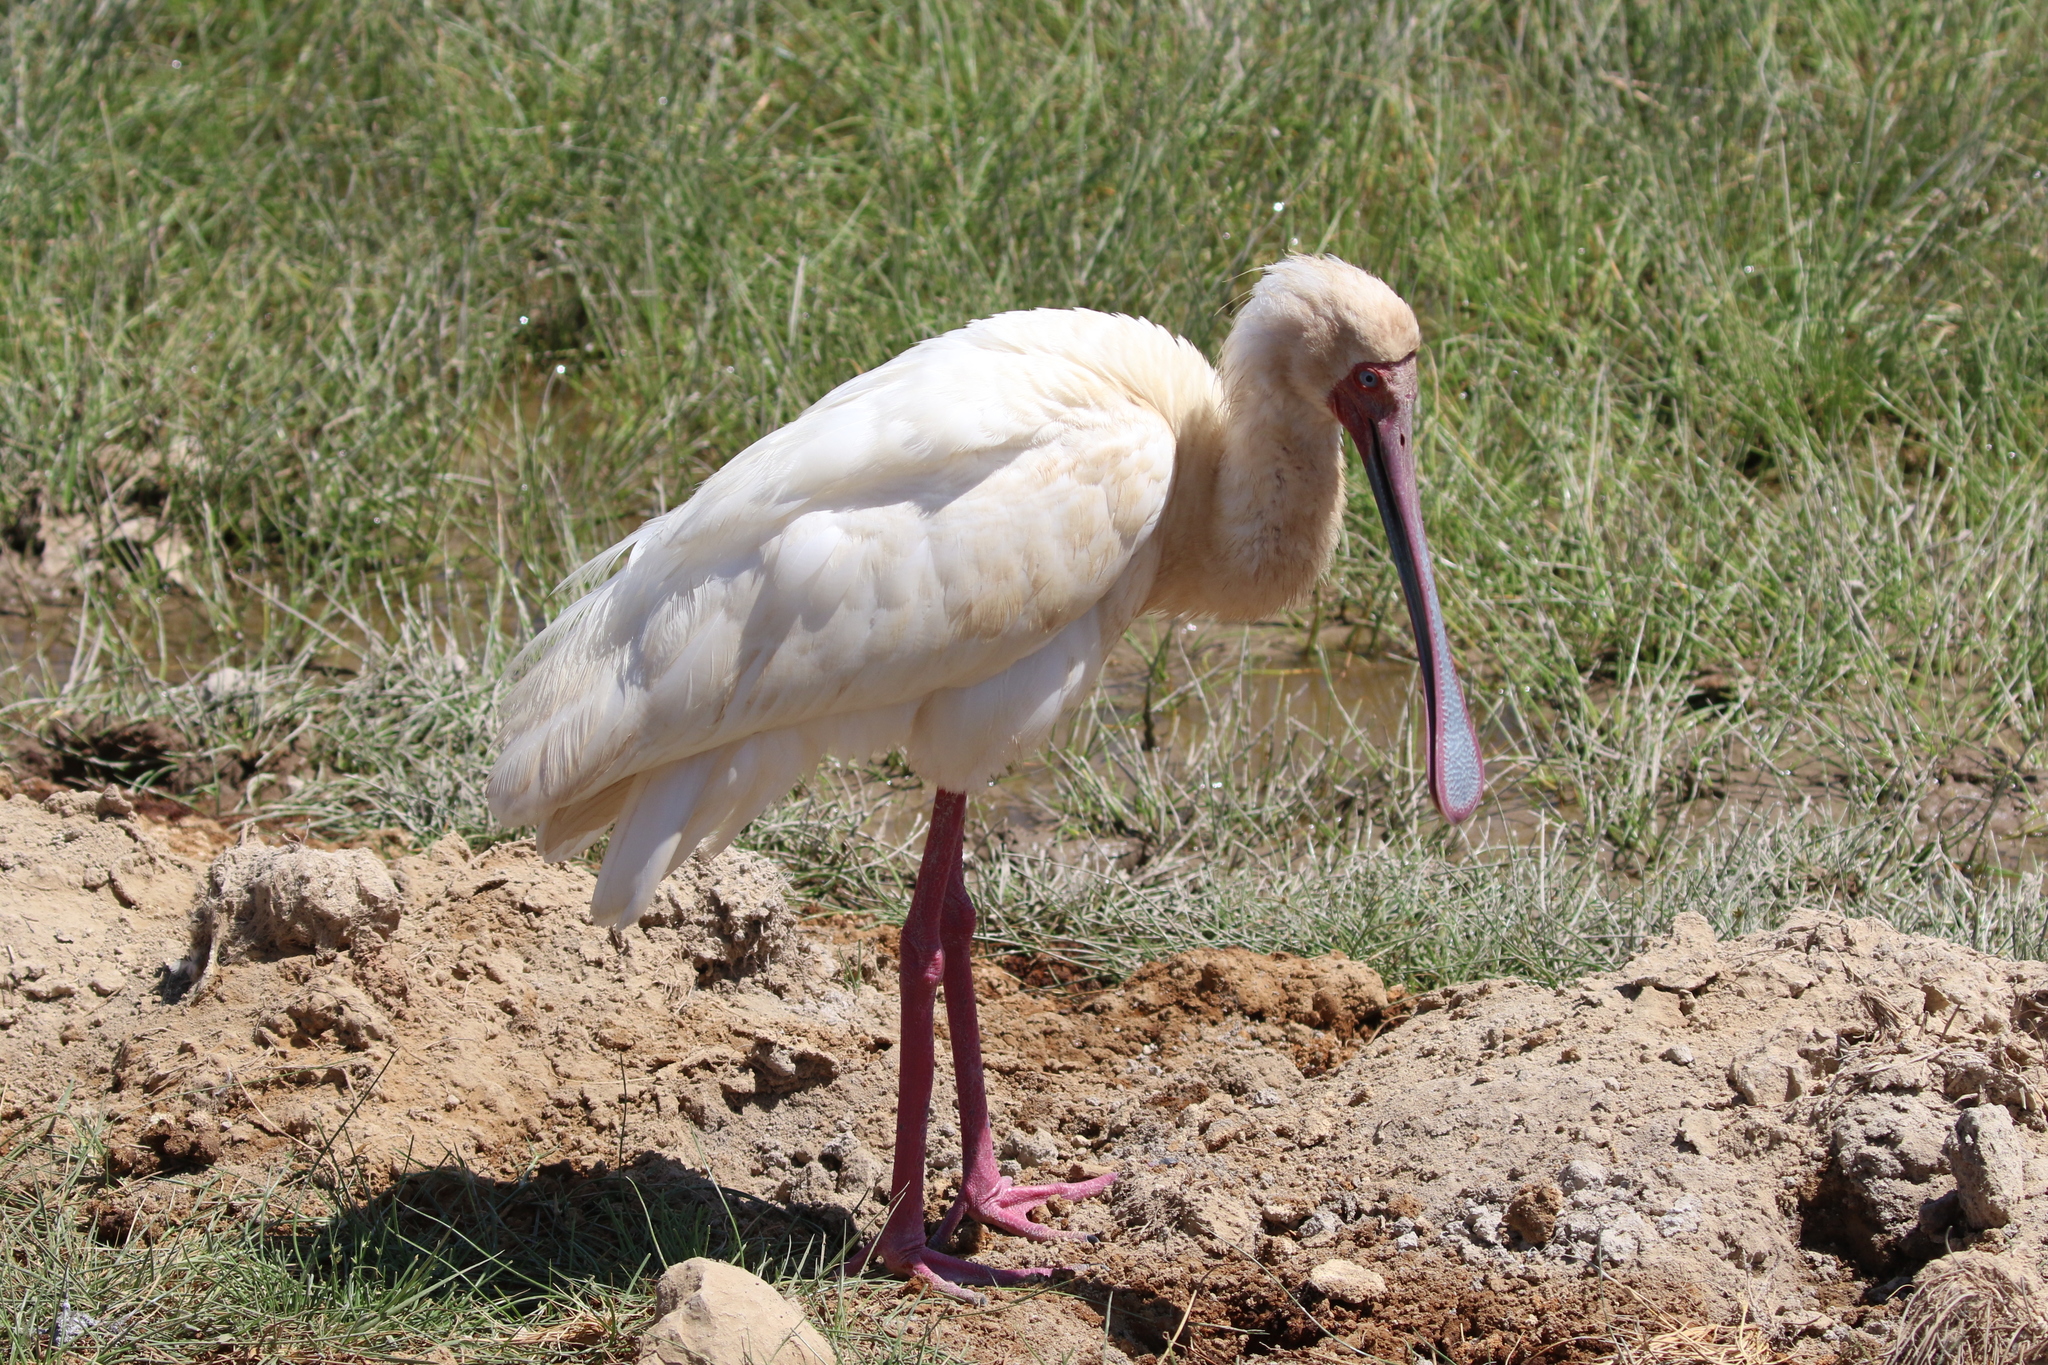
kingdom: Animalia
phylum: Chordata
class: Aves
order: Pelecaniformes
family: Threskiornithidae
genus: Platalea
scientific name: Platalea alba
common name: African spoonbill
